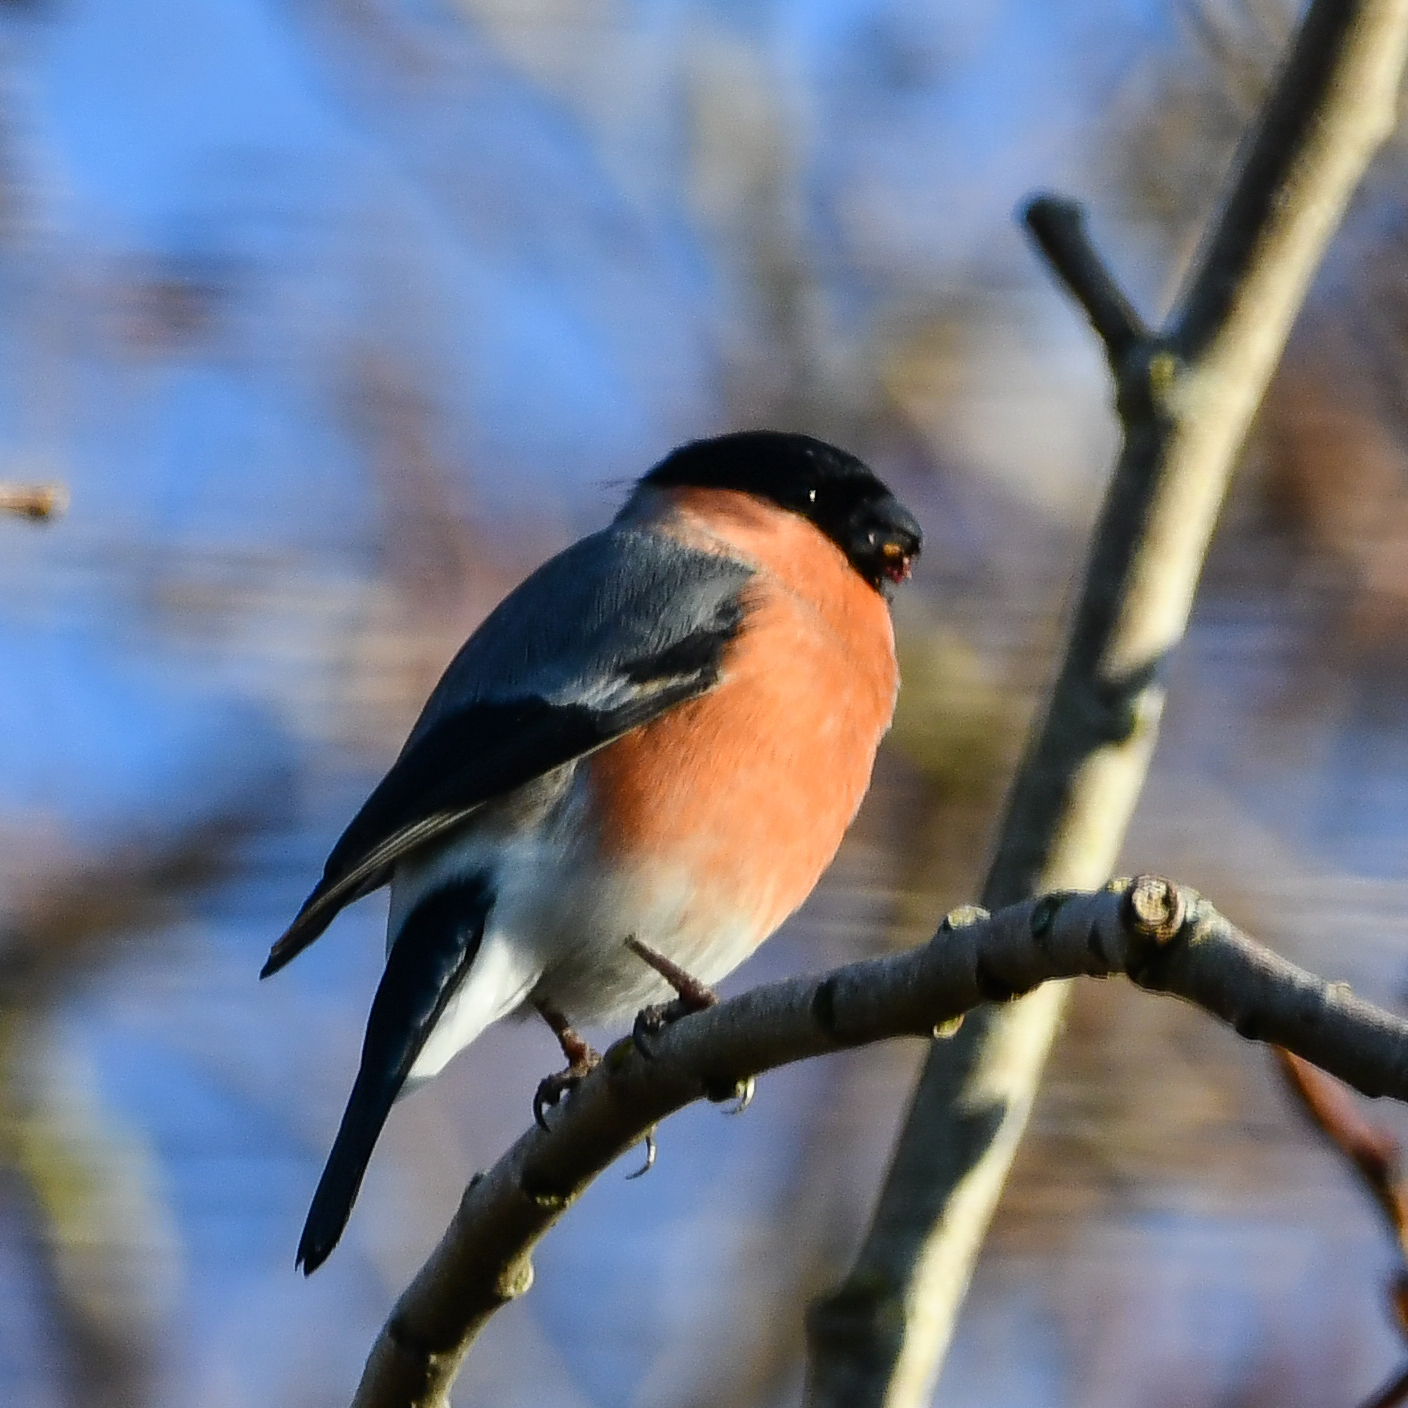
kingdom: Animalia
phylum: Chordata
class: Aves
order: Passeriformes
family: Fringillidae
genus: Pyrrhula
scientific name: Pyrrhula pyrrhula
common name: Eurasian bullfinch
